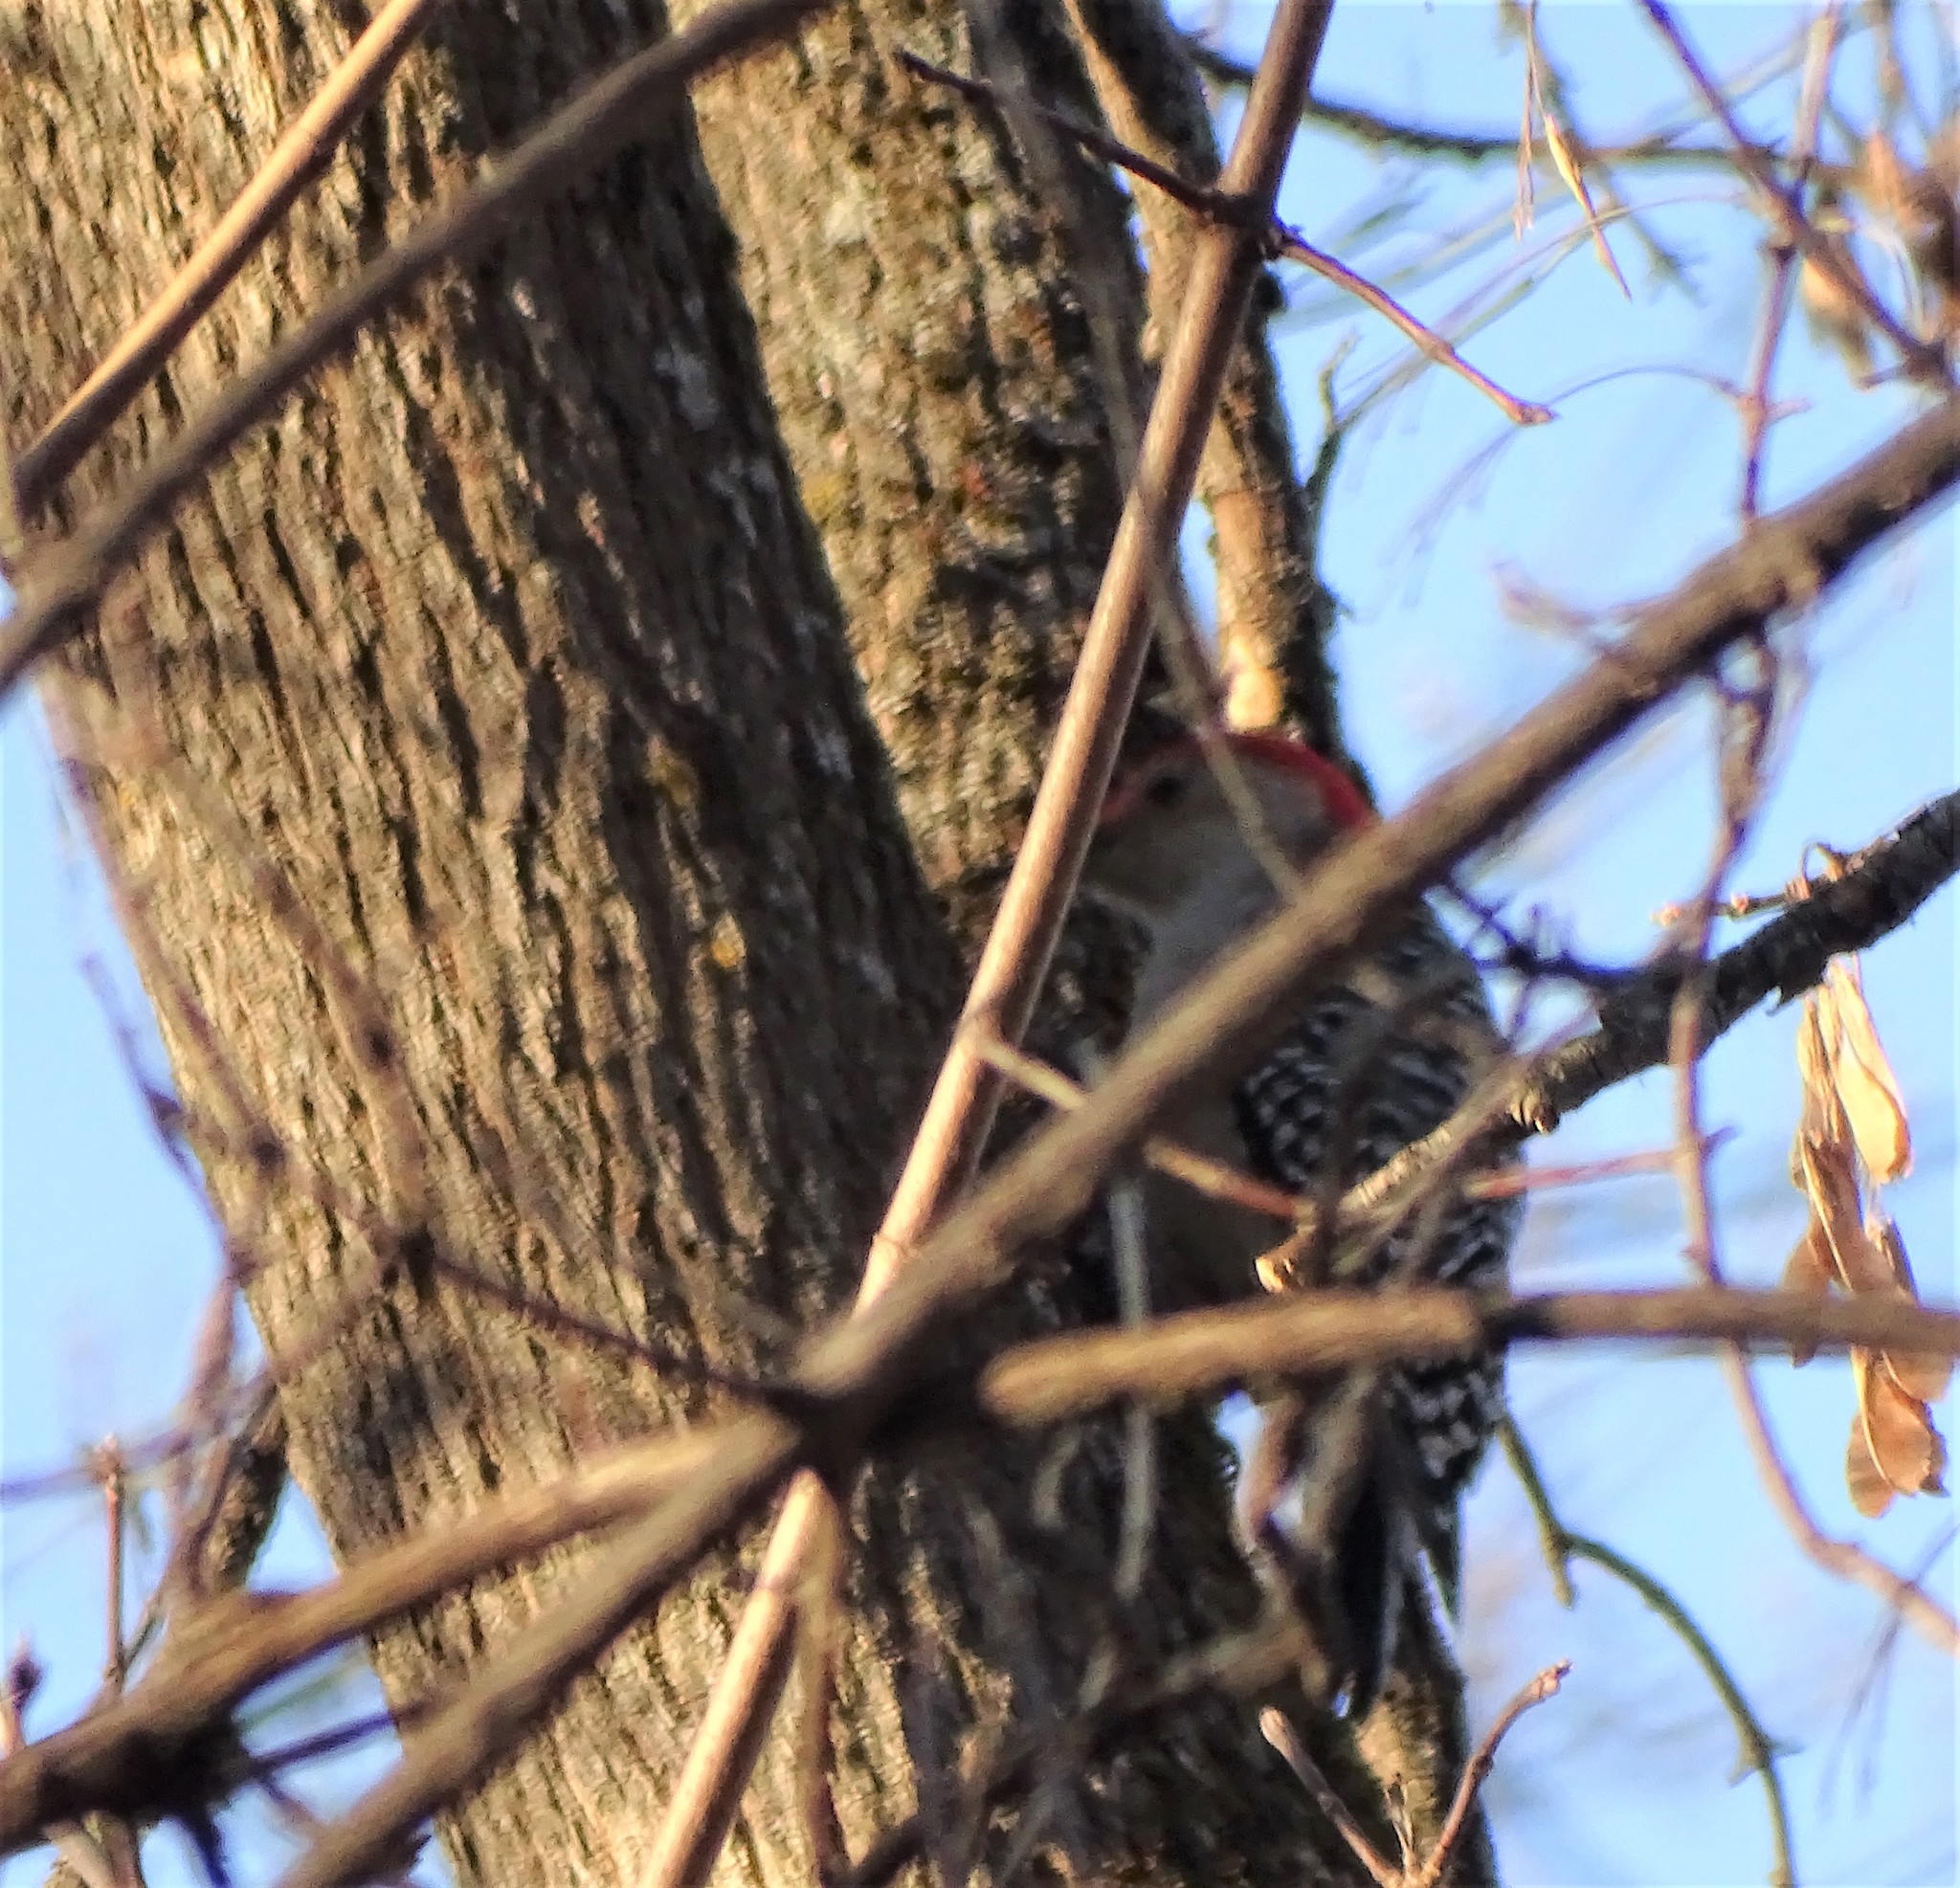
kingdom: Animalia
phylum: Chordata
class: Aves
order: Piciformes
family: Picidae
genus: Melanerpes
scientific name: Melanerpes carolinus
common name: Red-bellied woodpecker
